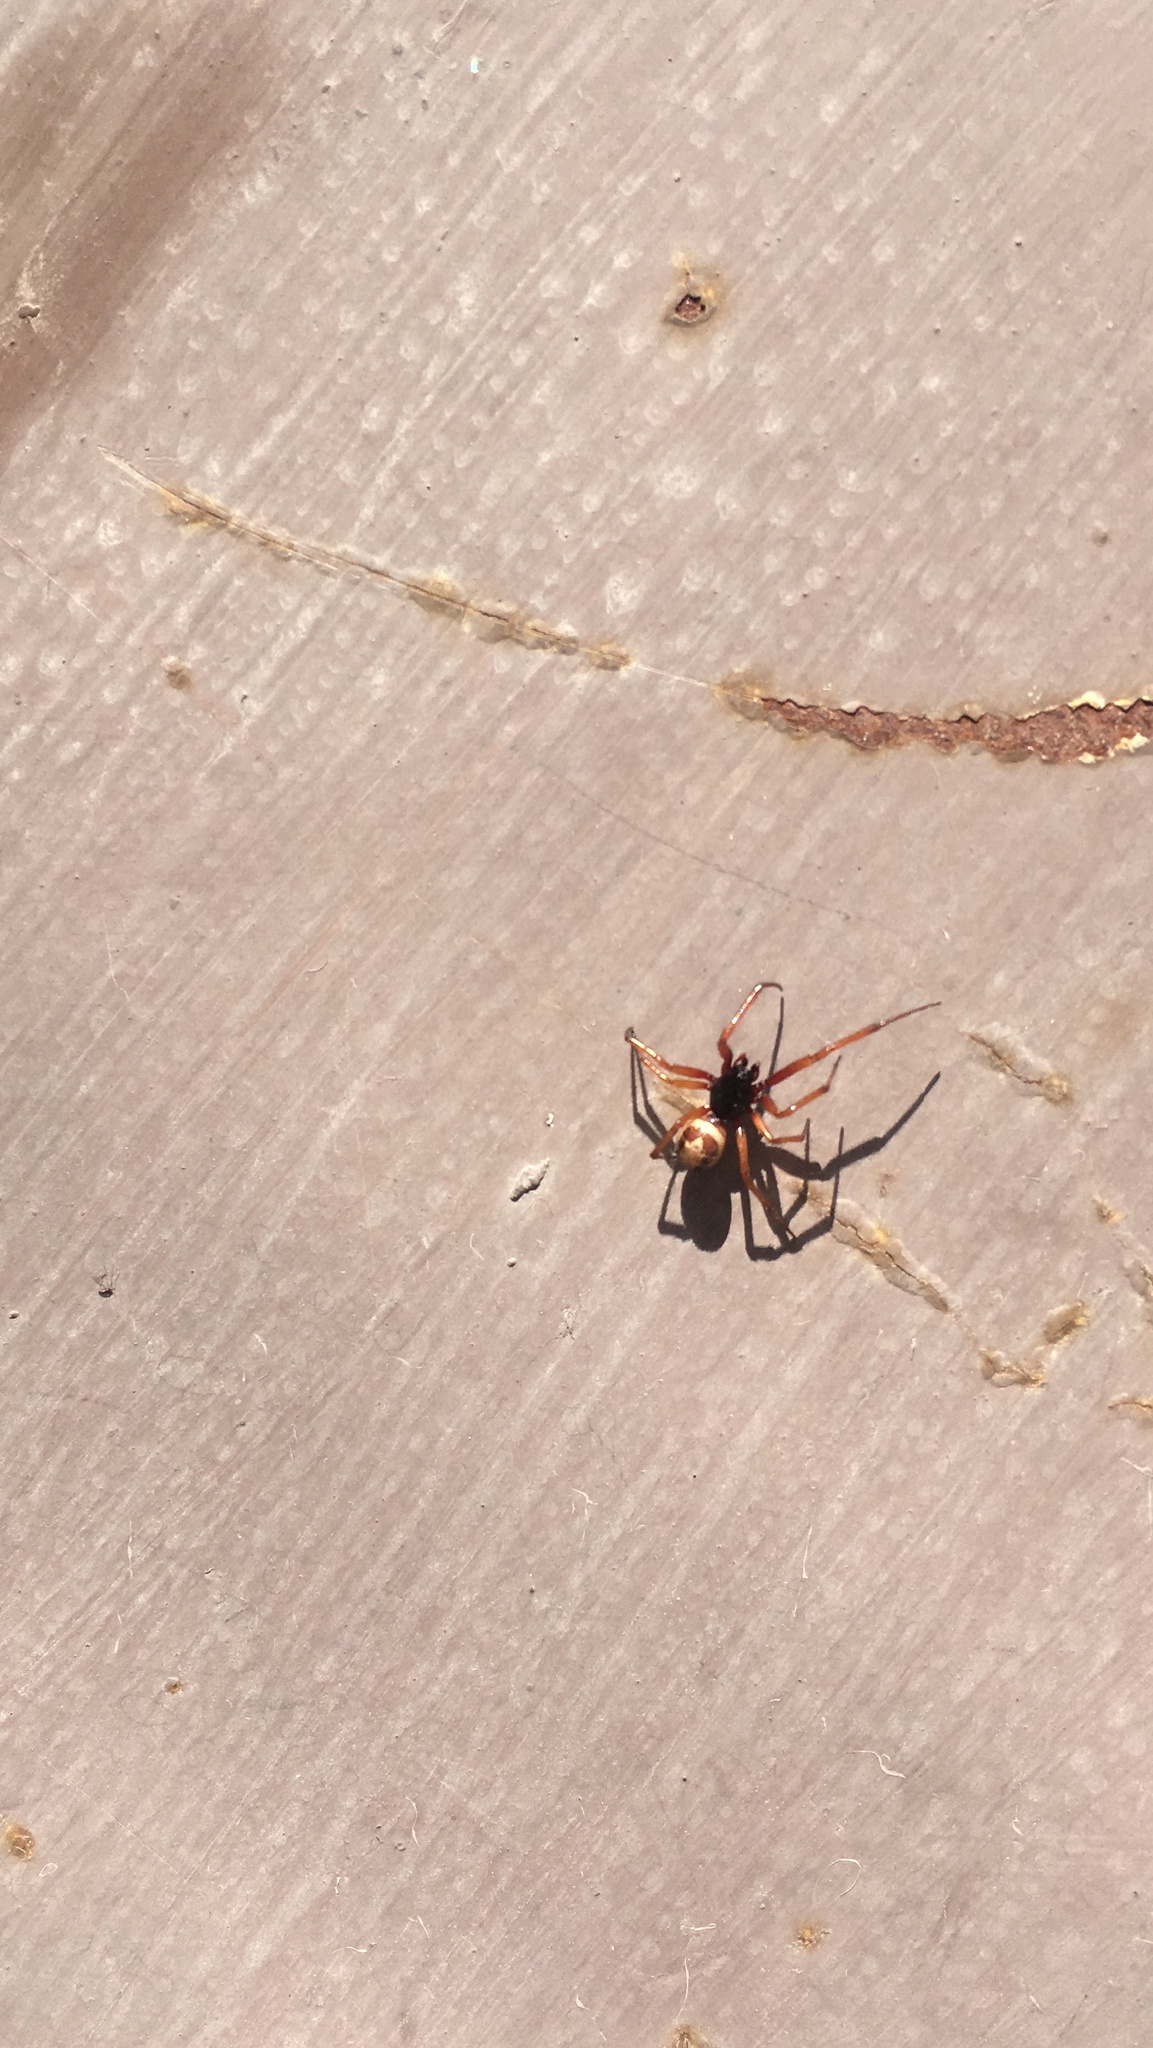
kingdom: Animalia
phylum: Arthropoda
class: Arachnida
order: Araneae
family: Theridiidae
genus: Steatoda
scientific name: Steatoda nobilis
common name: Cobweb weaver
